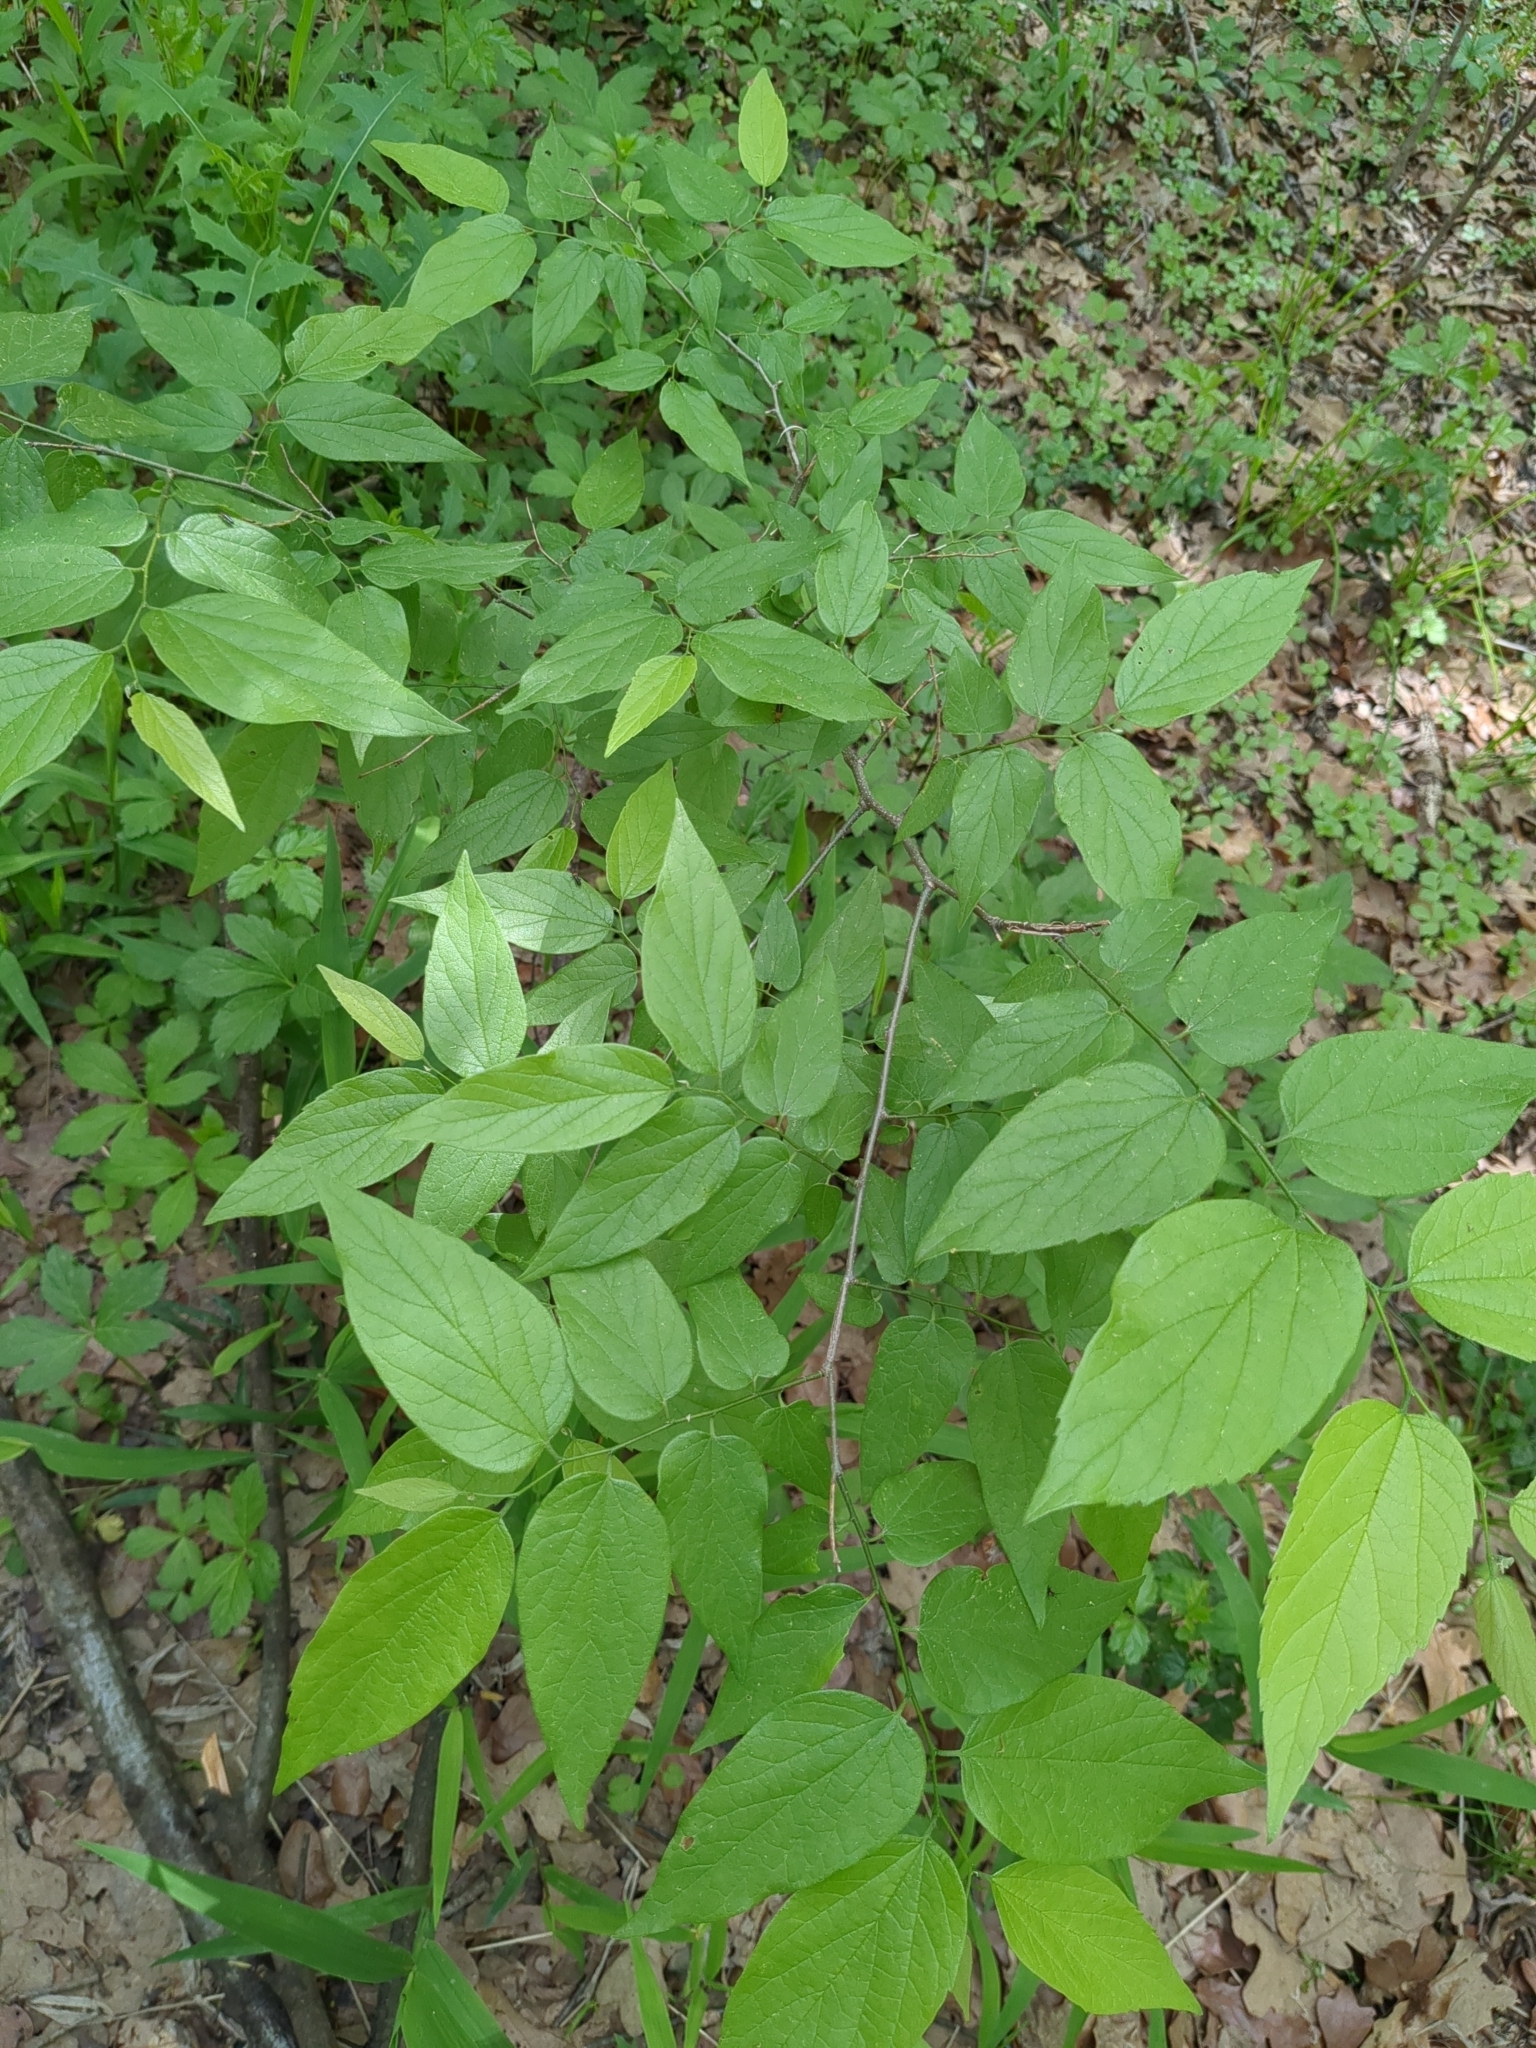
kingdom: Plantae
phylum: Tracheophyta
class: Magnoliopsida
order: Rosales
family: Cannabaceae
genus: Celtis
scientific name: Celtis laevigata
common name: Sugarberry
